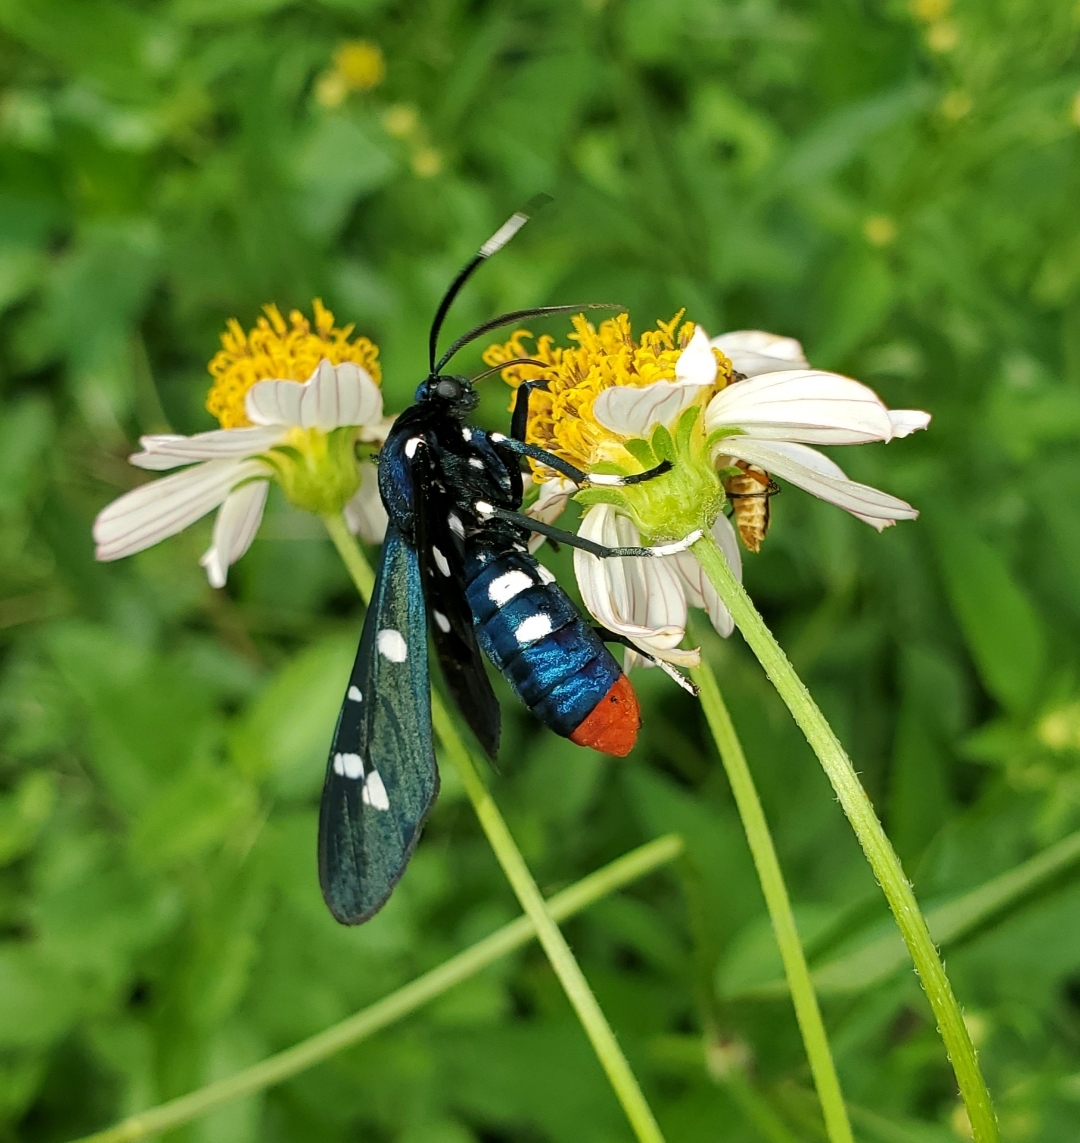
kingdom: Animalia
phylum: Arthropoda
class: Insecta
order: Lepidoptera
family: Erebidae
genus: Syntomeida
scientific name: Syntomeida epilais
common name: Polka-dot wasp moth
